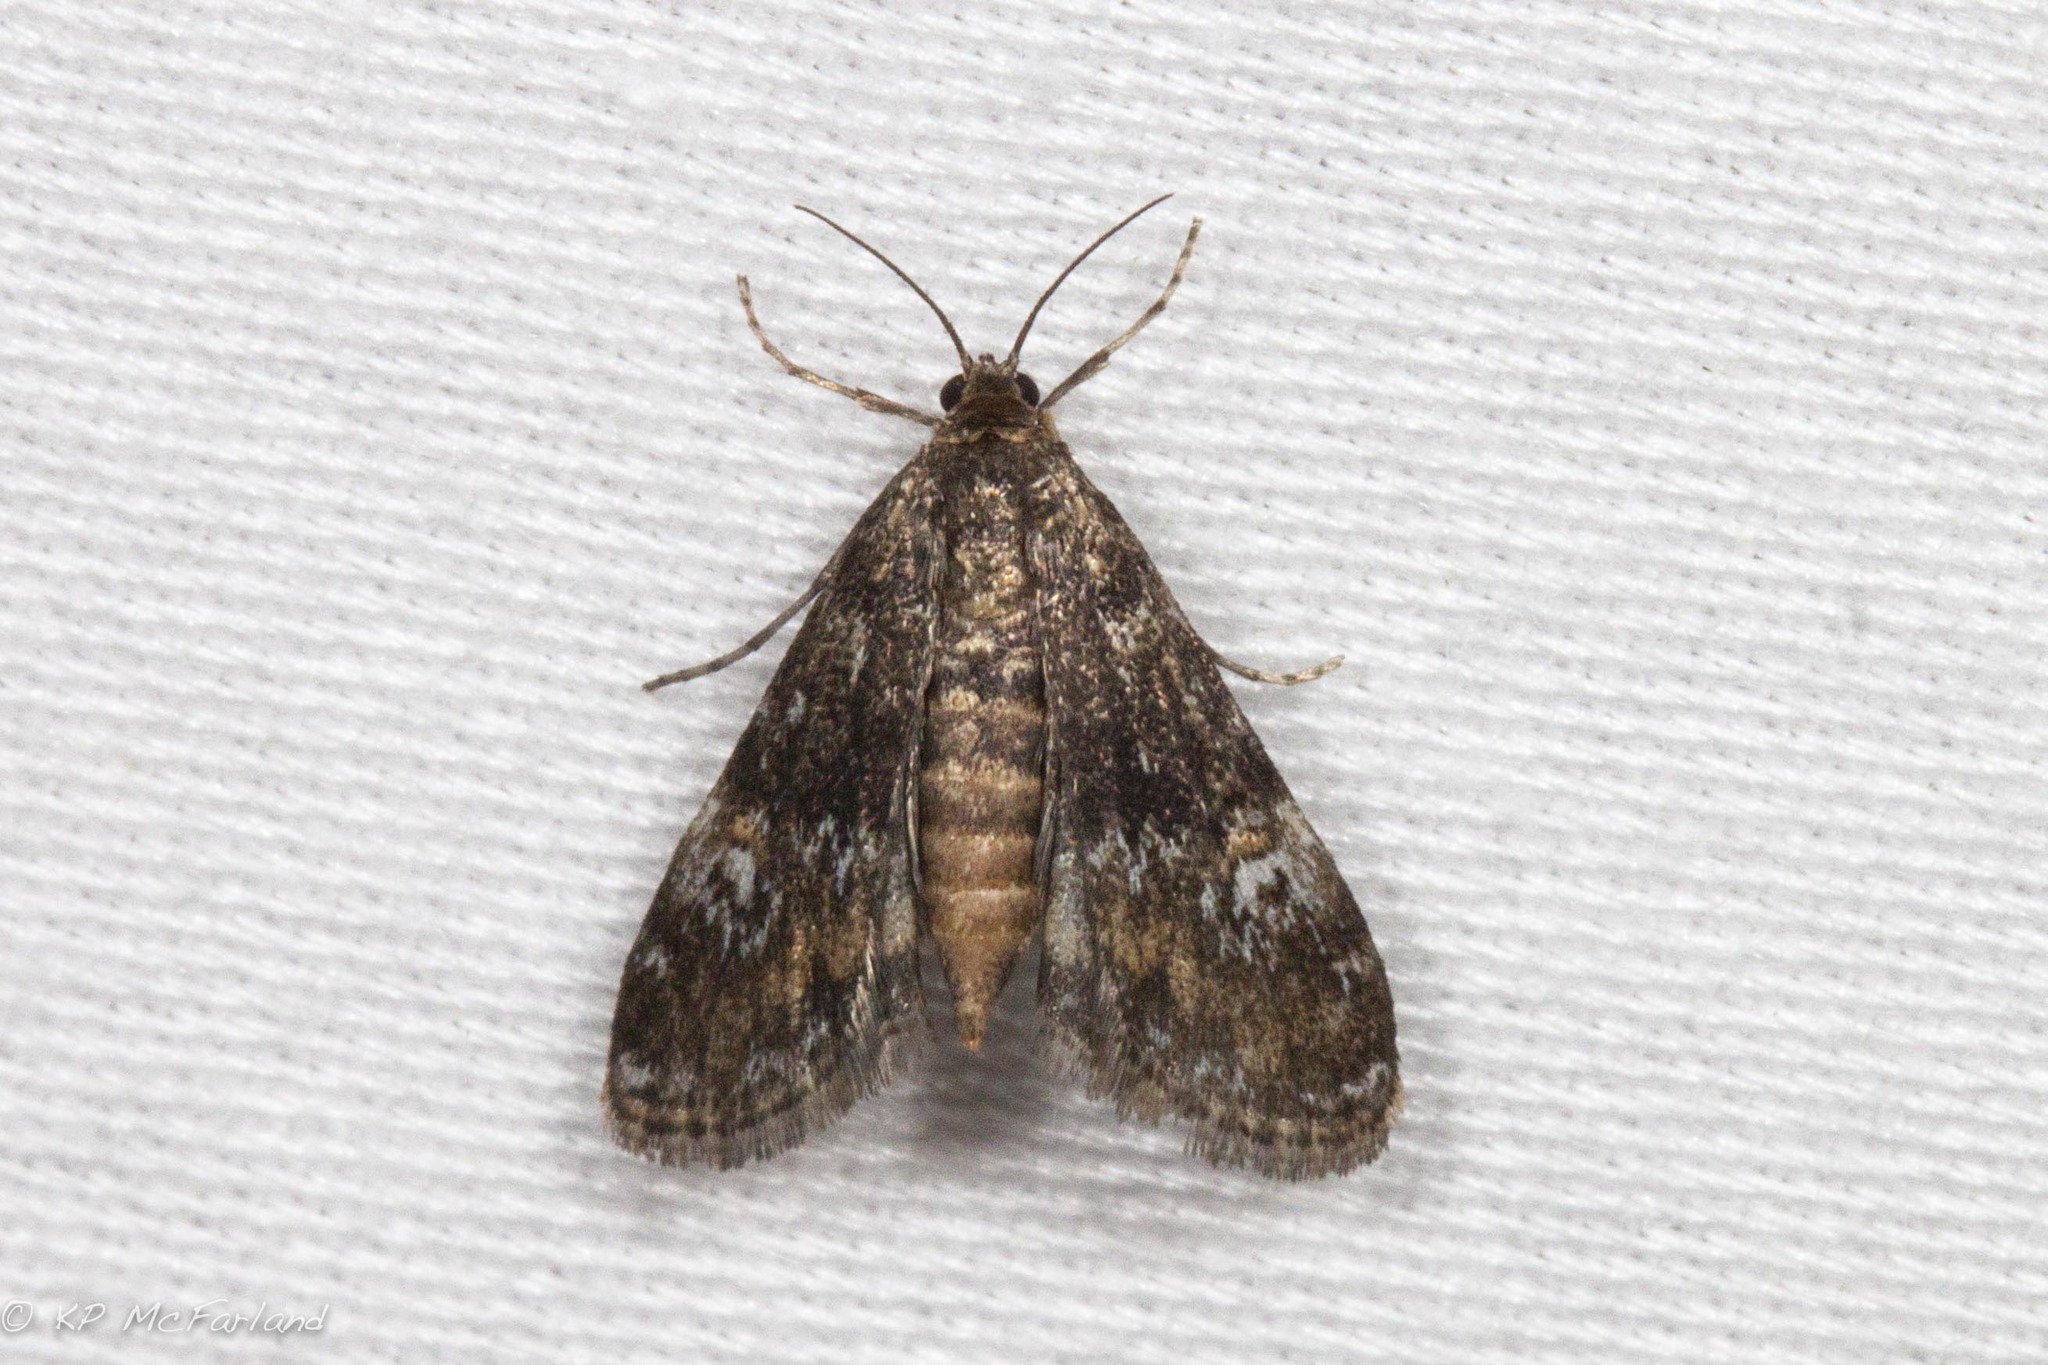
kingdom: Animalia
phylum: Arthropoda
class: Insecta
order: Lepidoptera
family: Crambidae
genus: Elophila
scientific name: Elophila obliteralis
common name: Waterlily leafcutter moth
